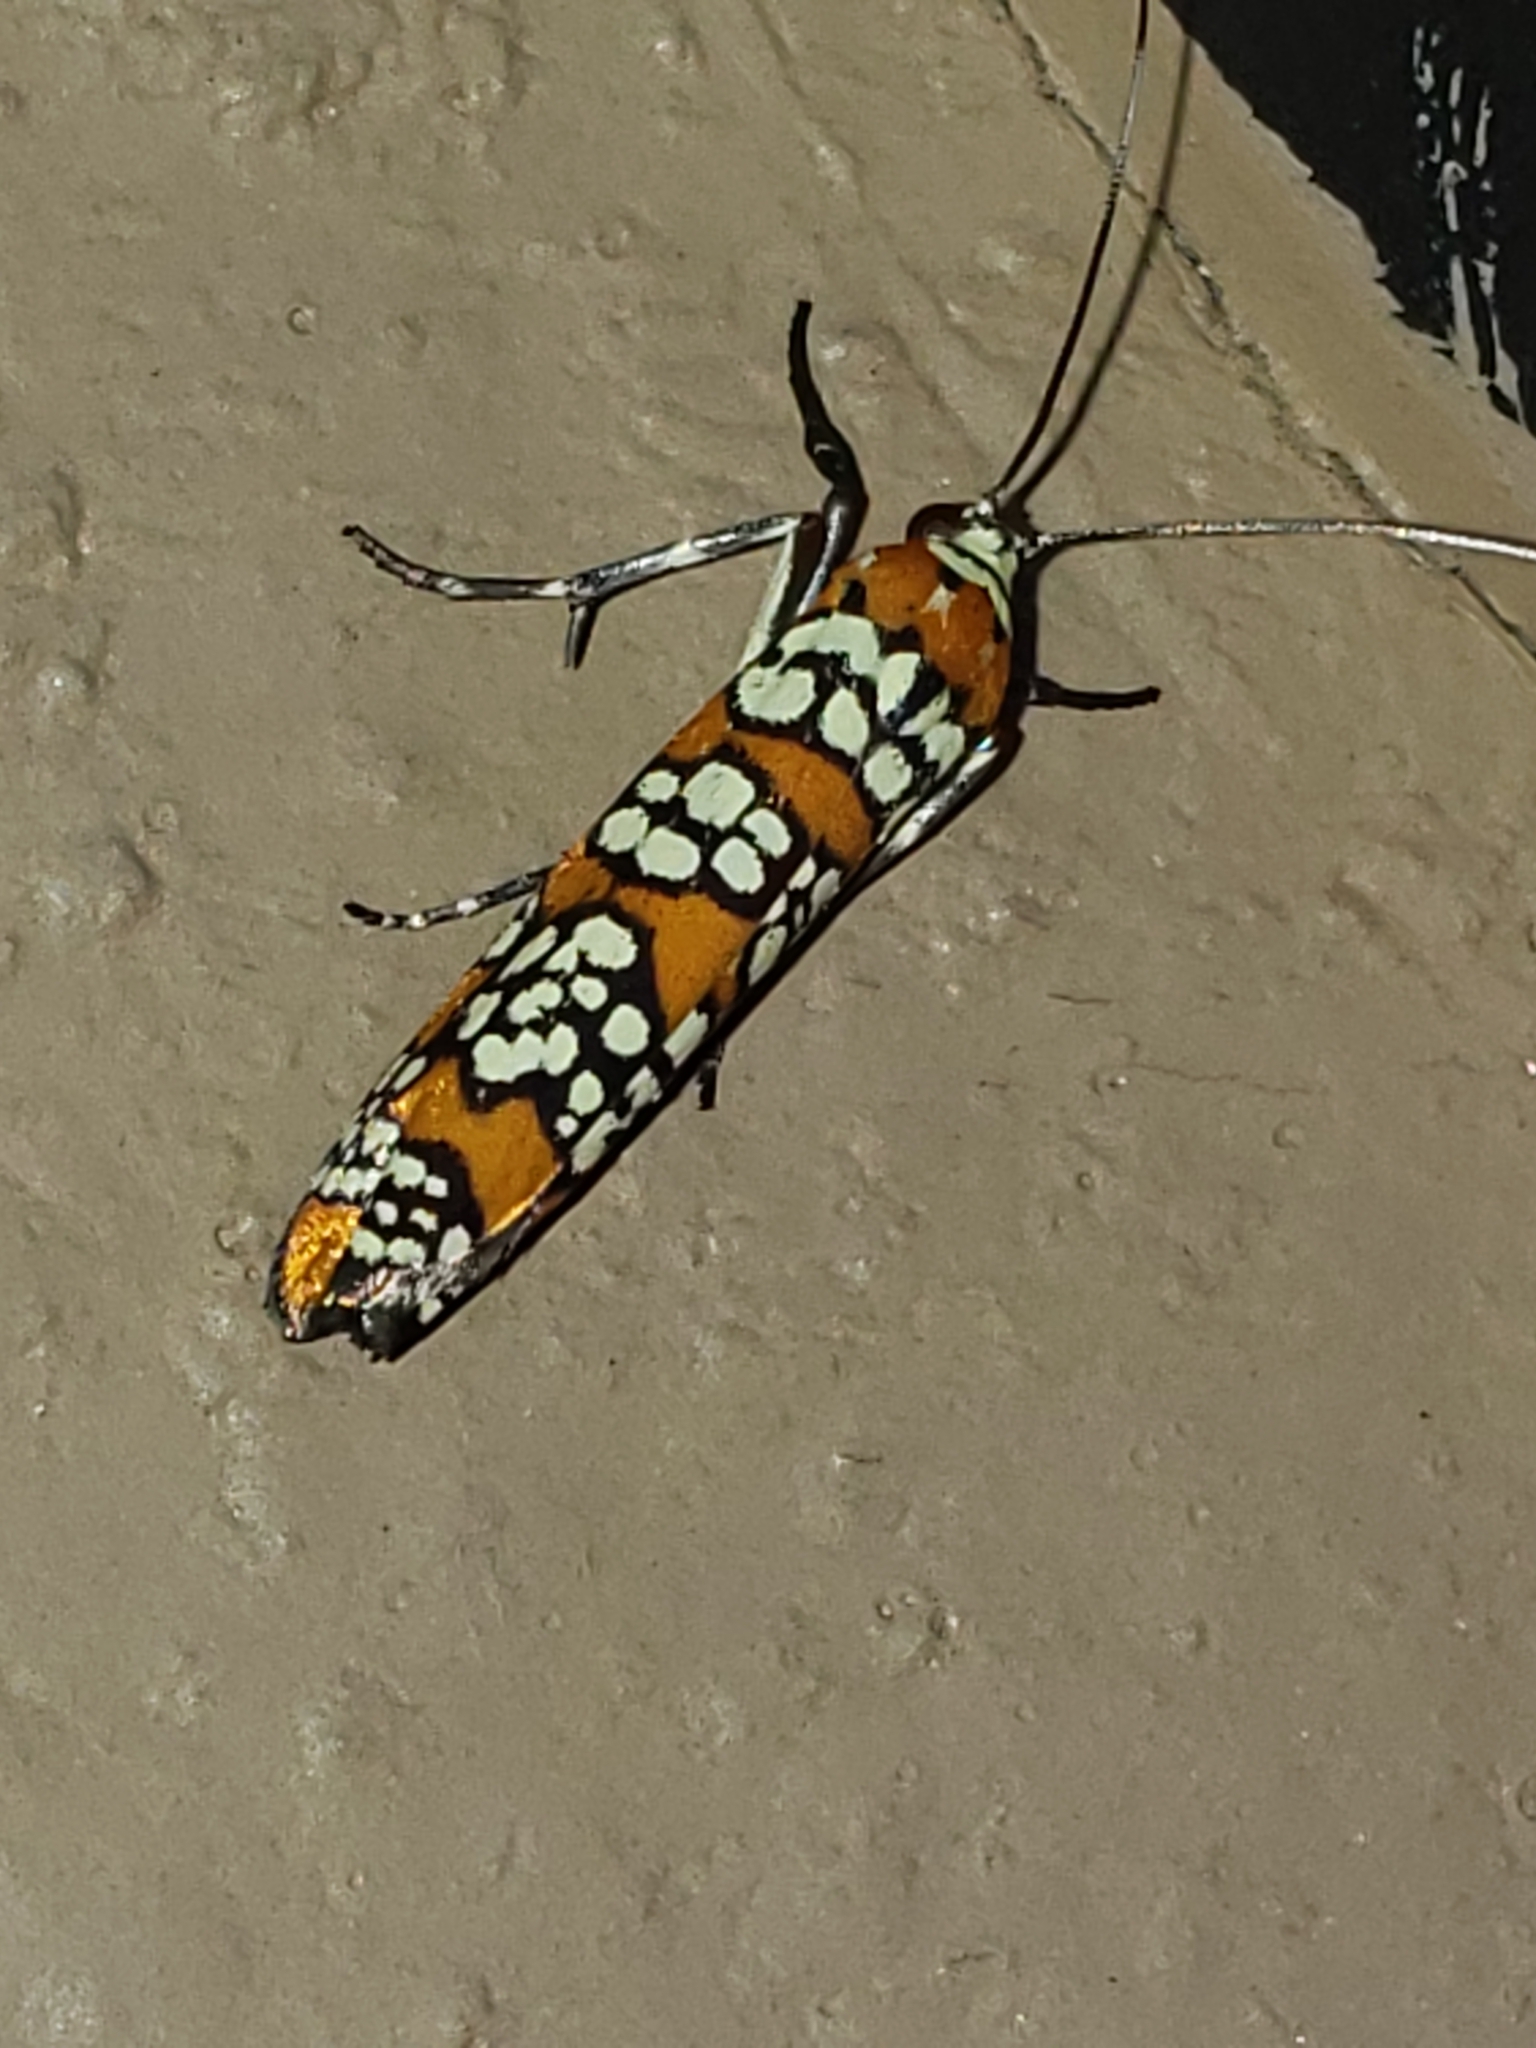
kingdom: Animalia
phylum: Arthropoda
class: Insecta
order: Lepidoptera
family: Attevidae
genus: Atteva
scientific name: Atteva punctella
